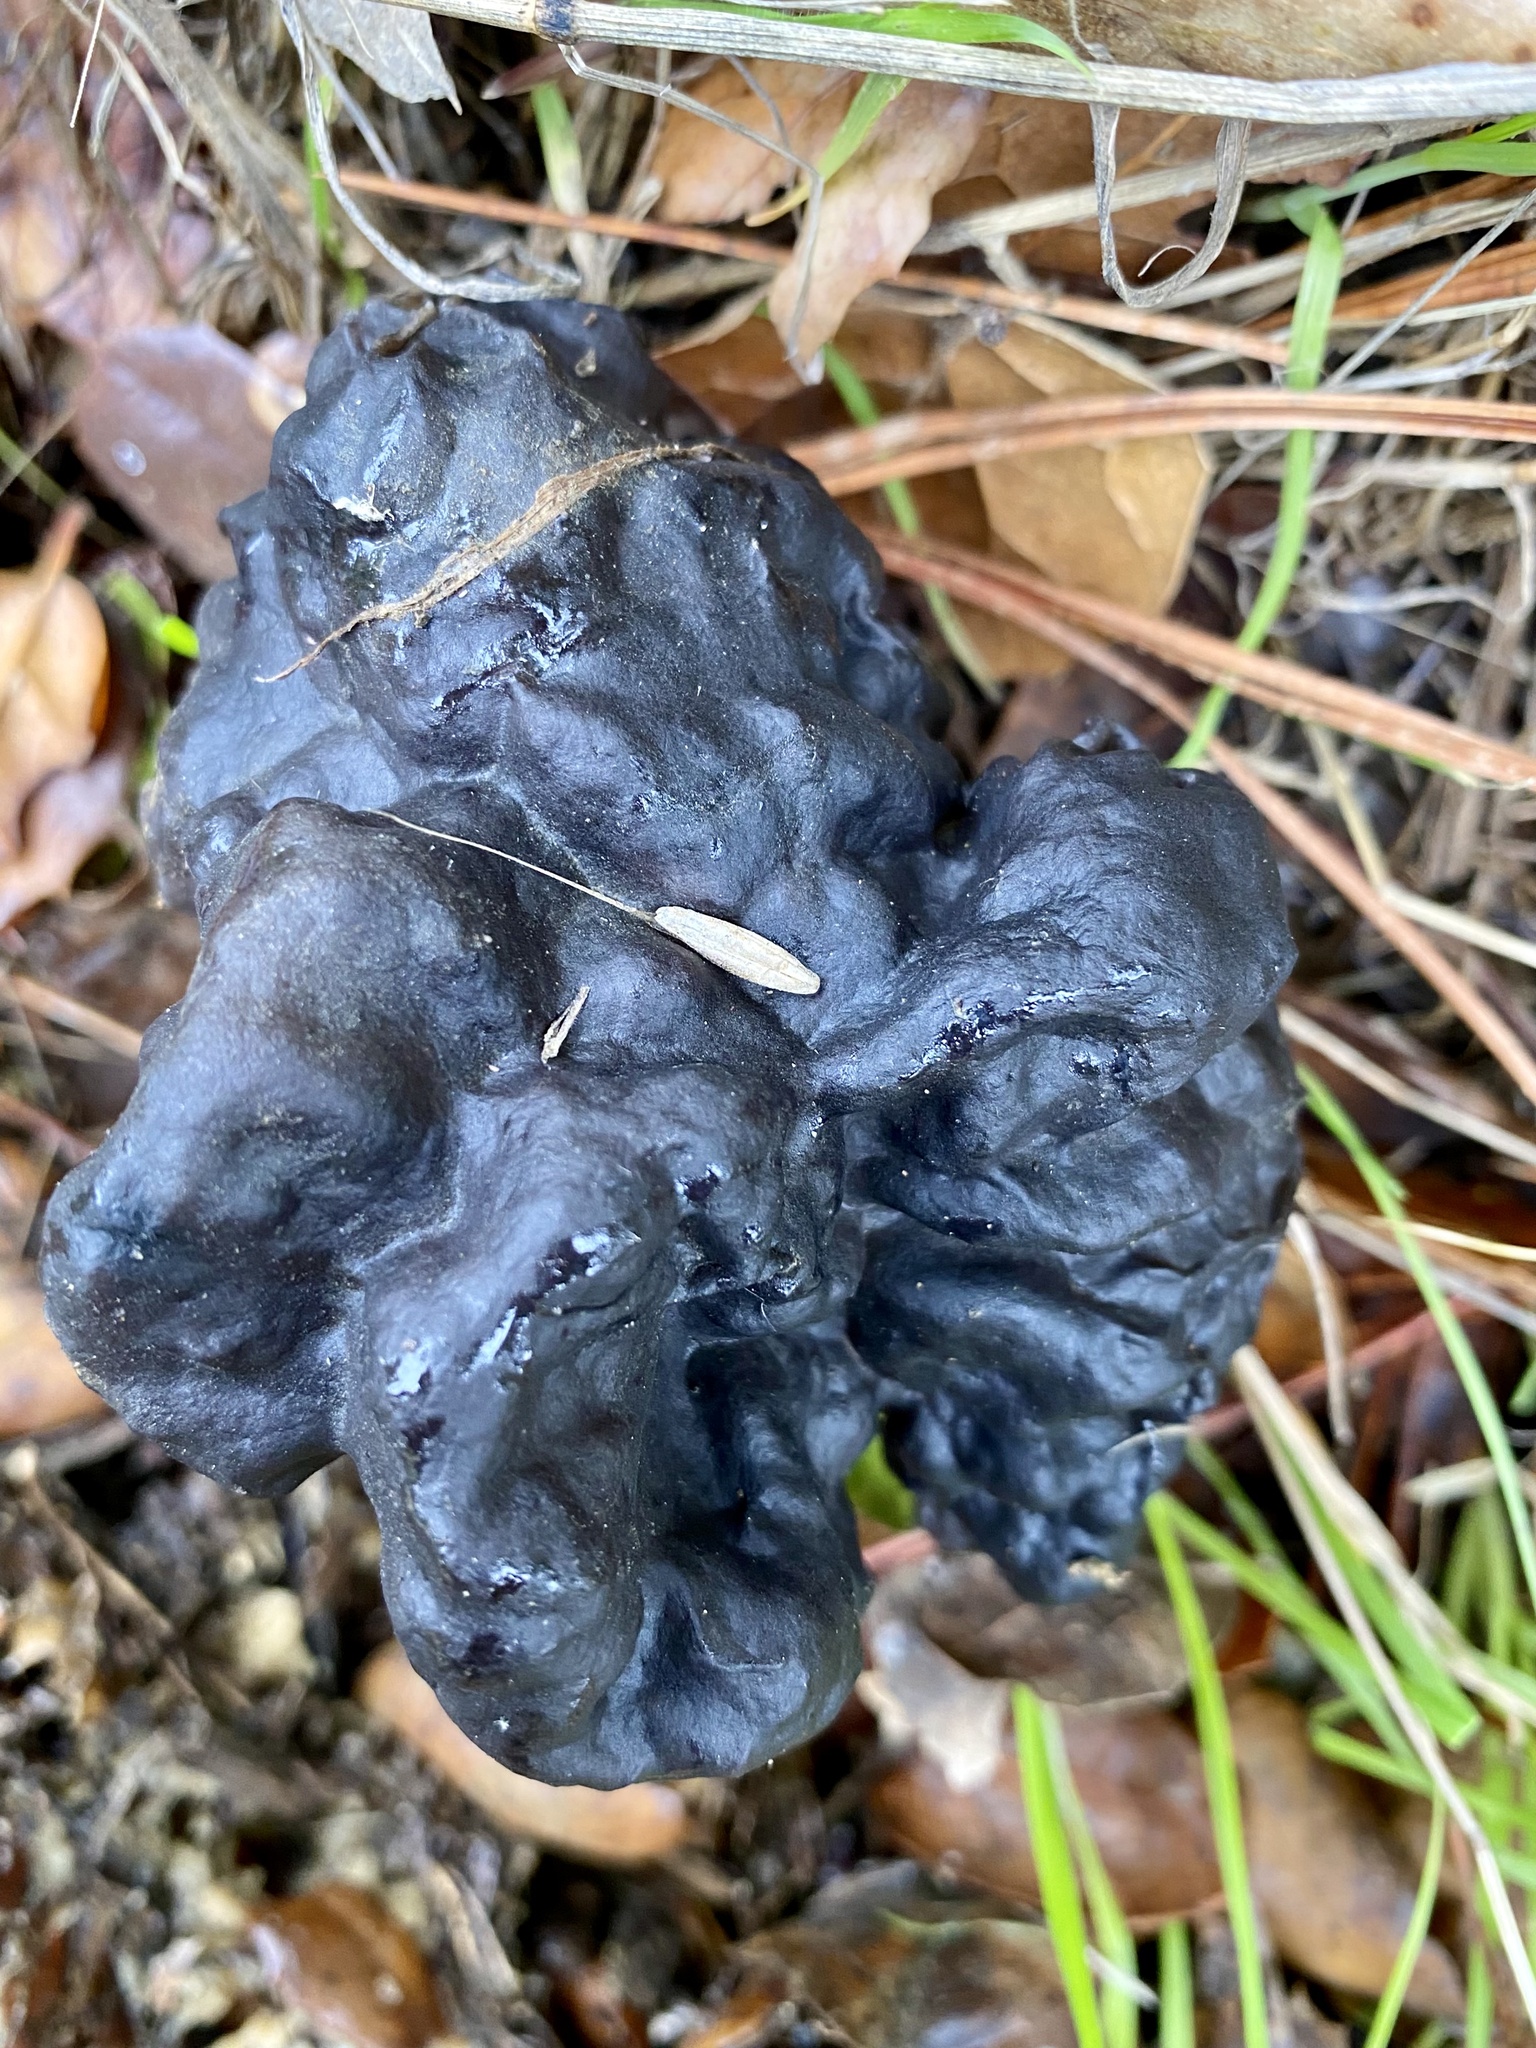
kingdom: Fungi
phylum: Ascomycota
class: Pezizomycetes
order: Pezizales
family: Helvellaceae
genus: Helvella
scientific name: Helvella dryophila
